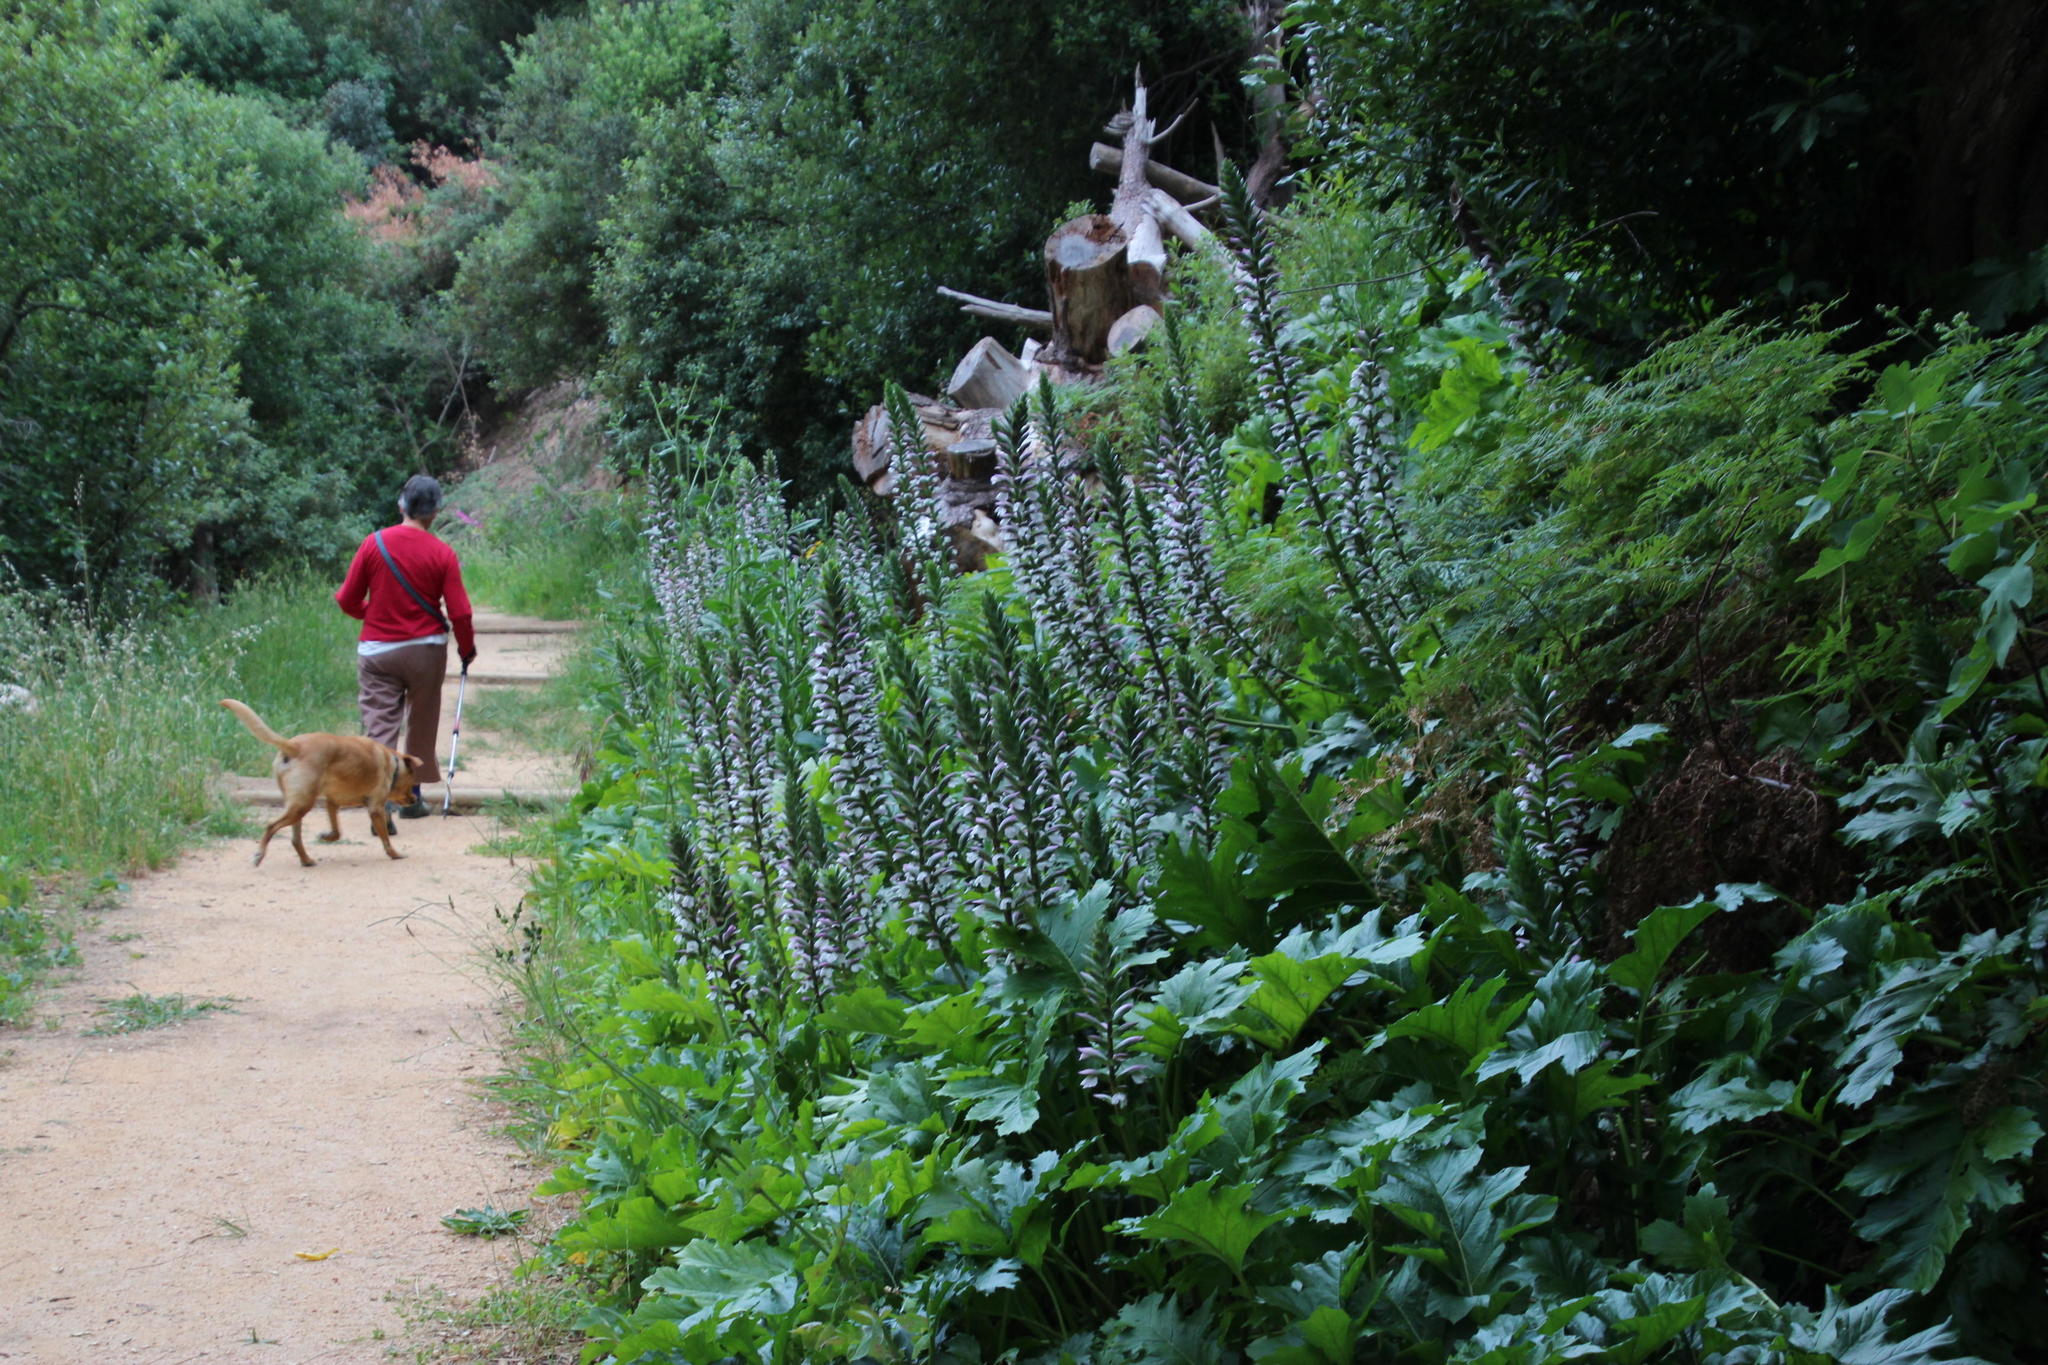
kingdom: Plantae
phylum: Tracheophyta
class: Magnoliopsida
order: Lamiales
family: Acanthaceae
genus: Acanthus
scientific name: Acanthus mollis
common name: Bear's-breech
